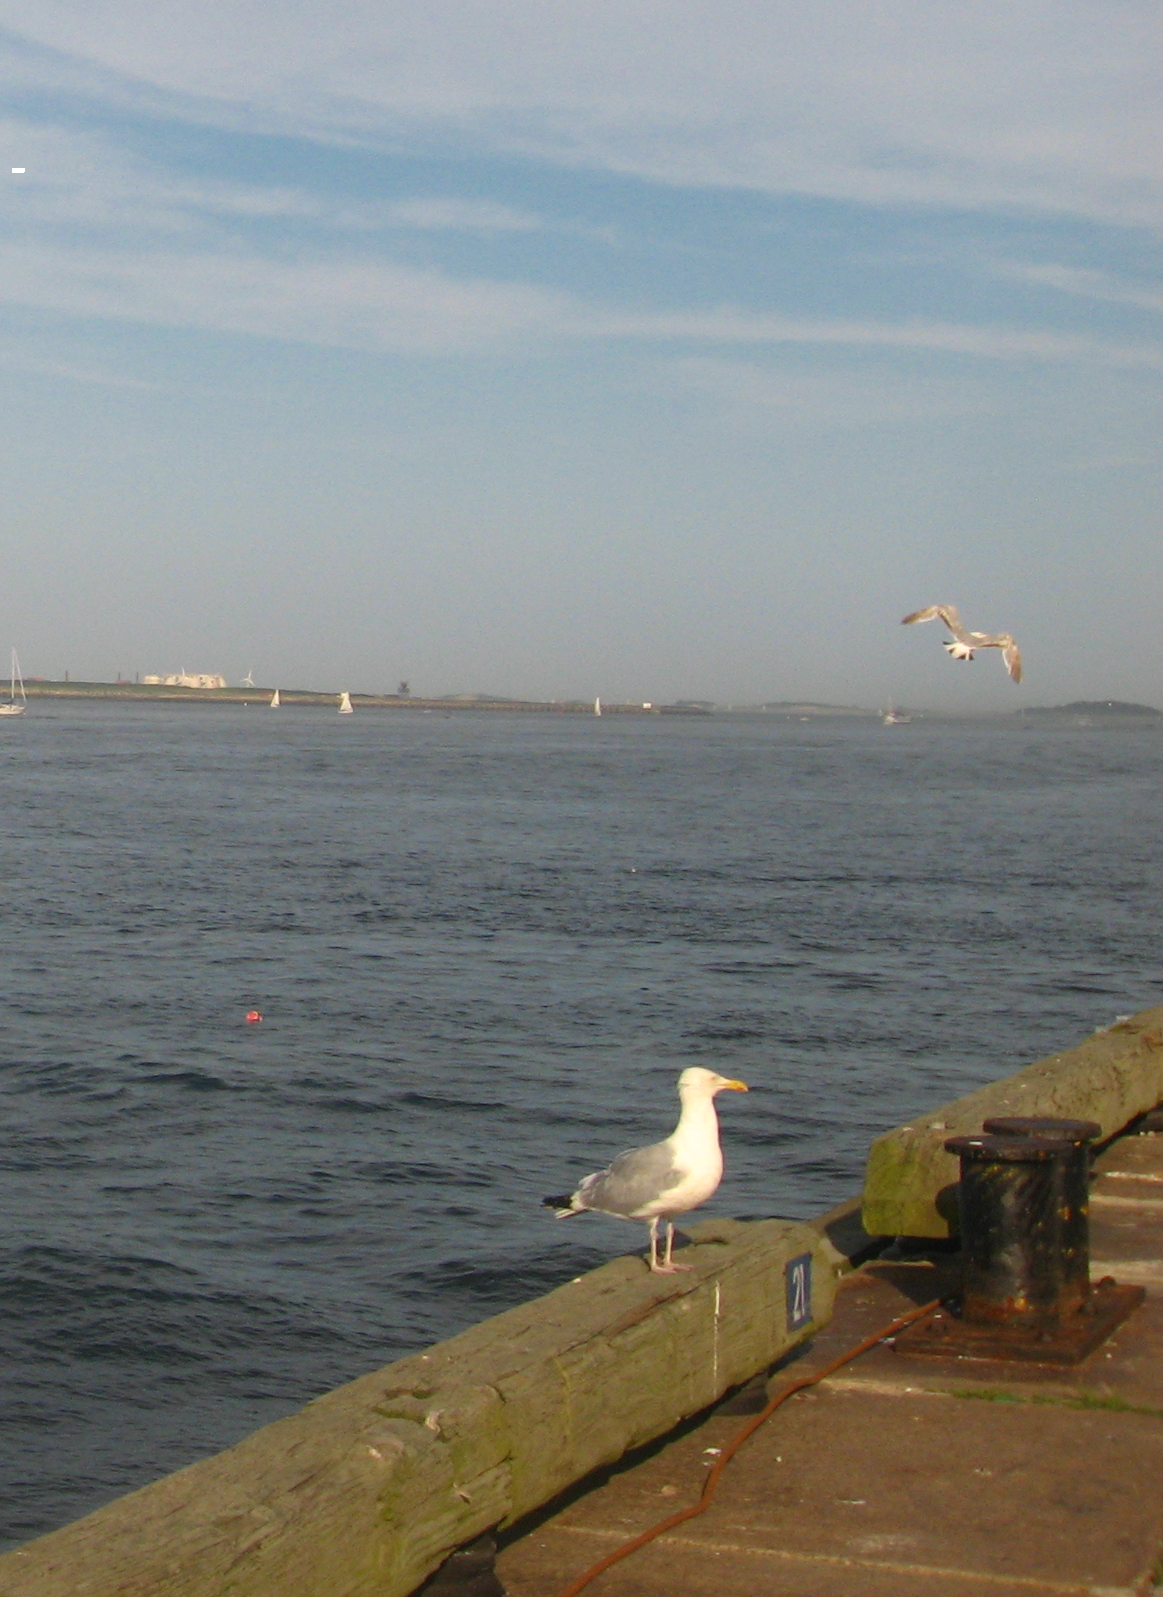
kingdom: Animalia
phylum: Chordata
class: Aves
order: Charadriiformes
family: Laridae
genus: Larus
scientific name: Larus smithsonianus
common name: American herring gull
